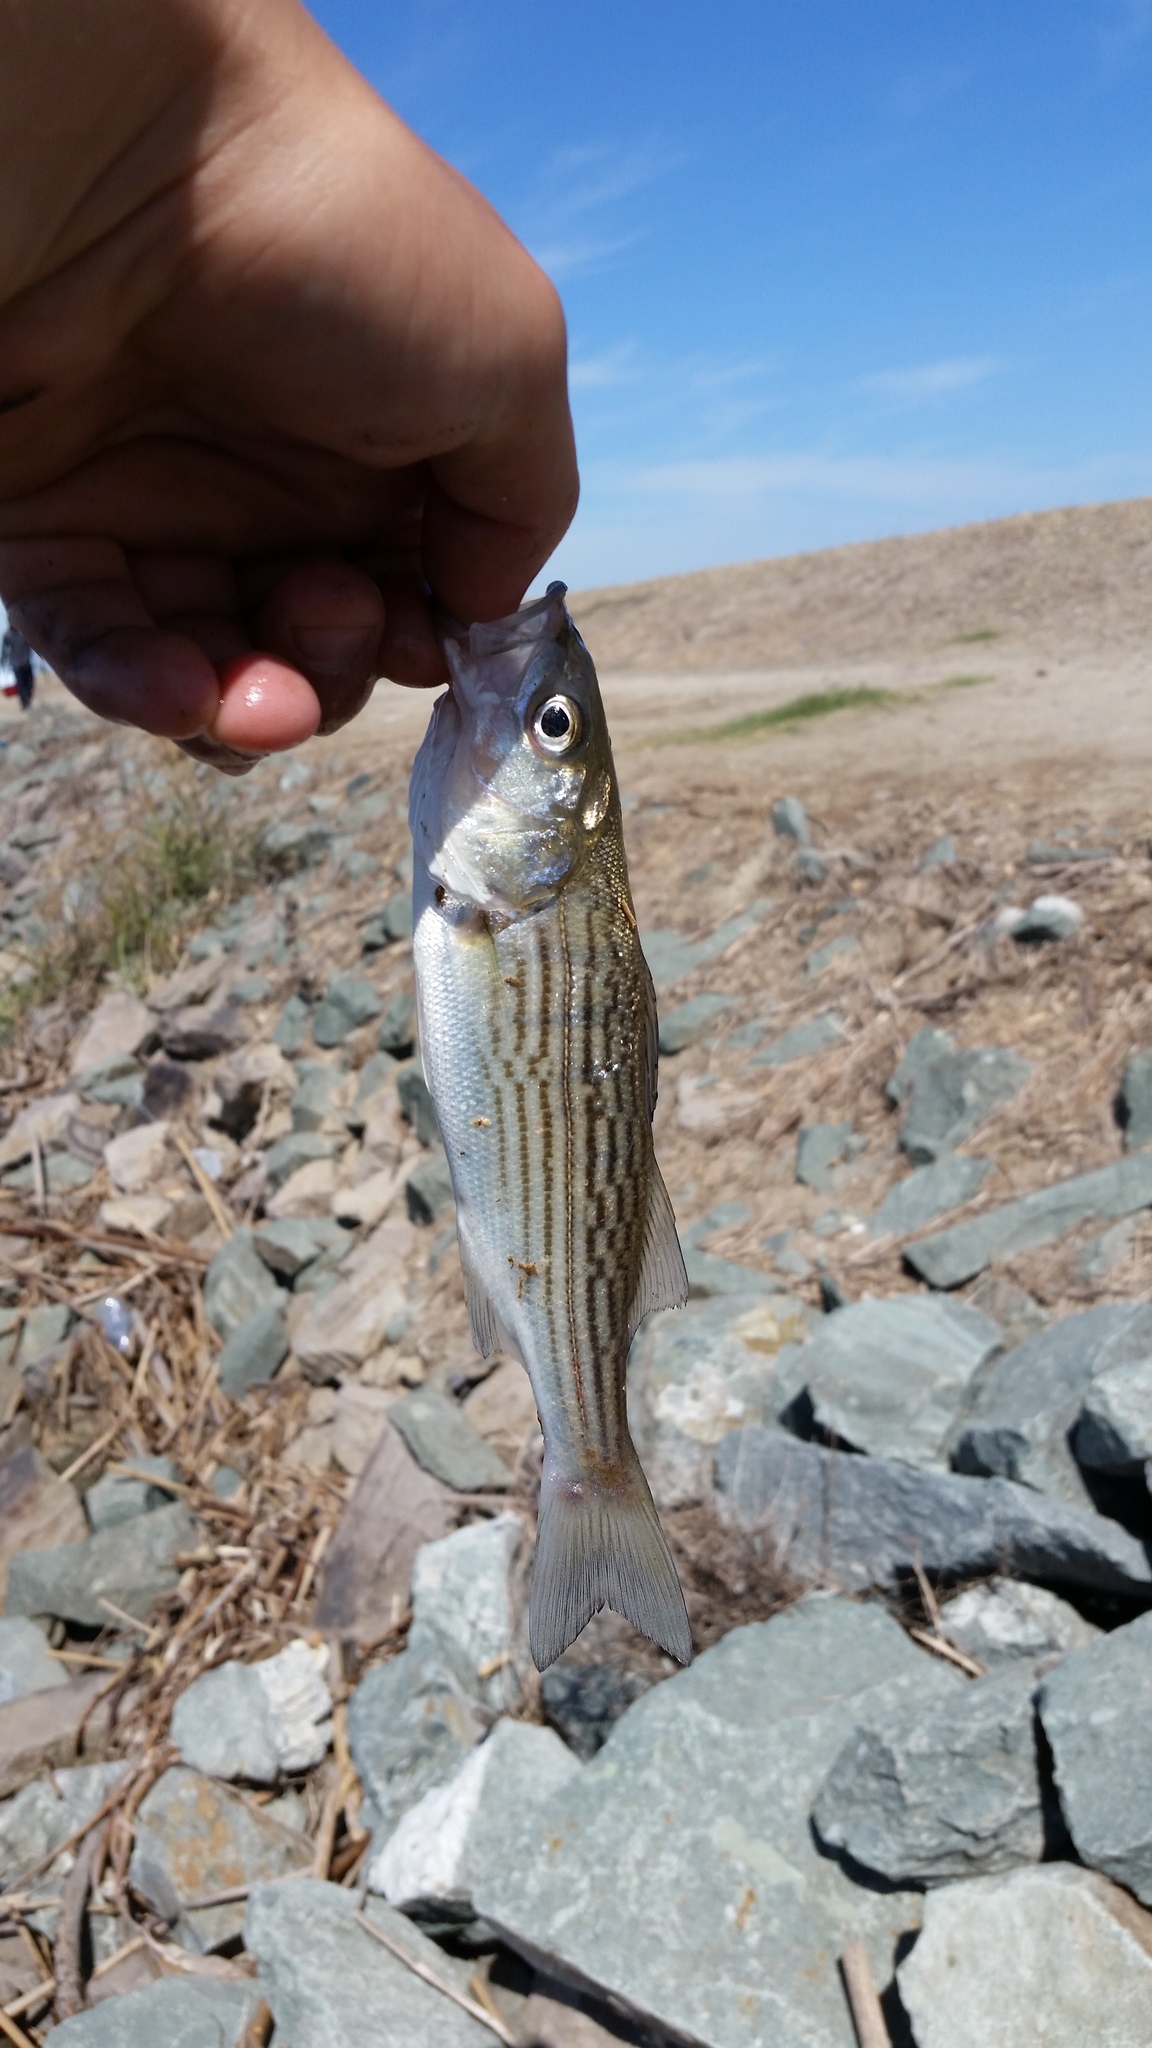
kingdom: Animalia
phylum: Chordata
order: Perciformes
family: Moronidae
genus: Morone
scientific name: Morone saxatilis
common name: Striped bass
